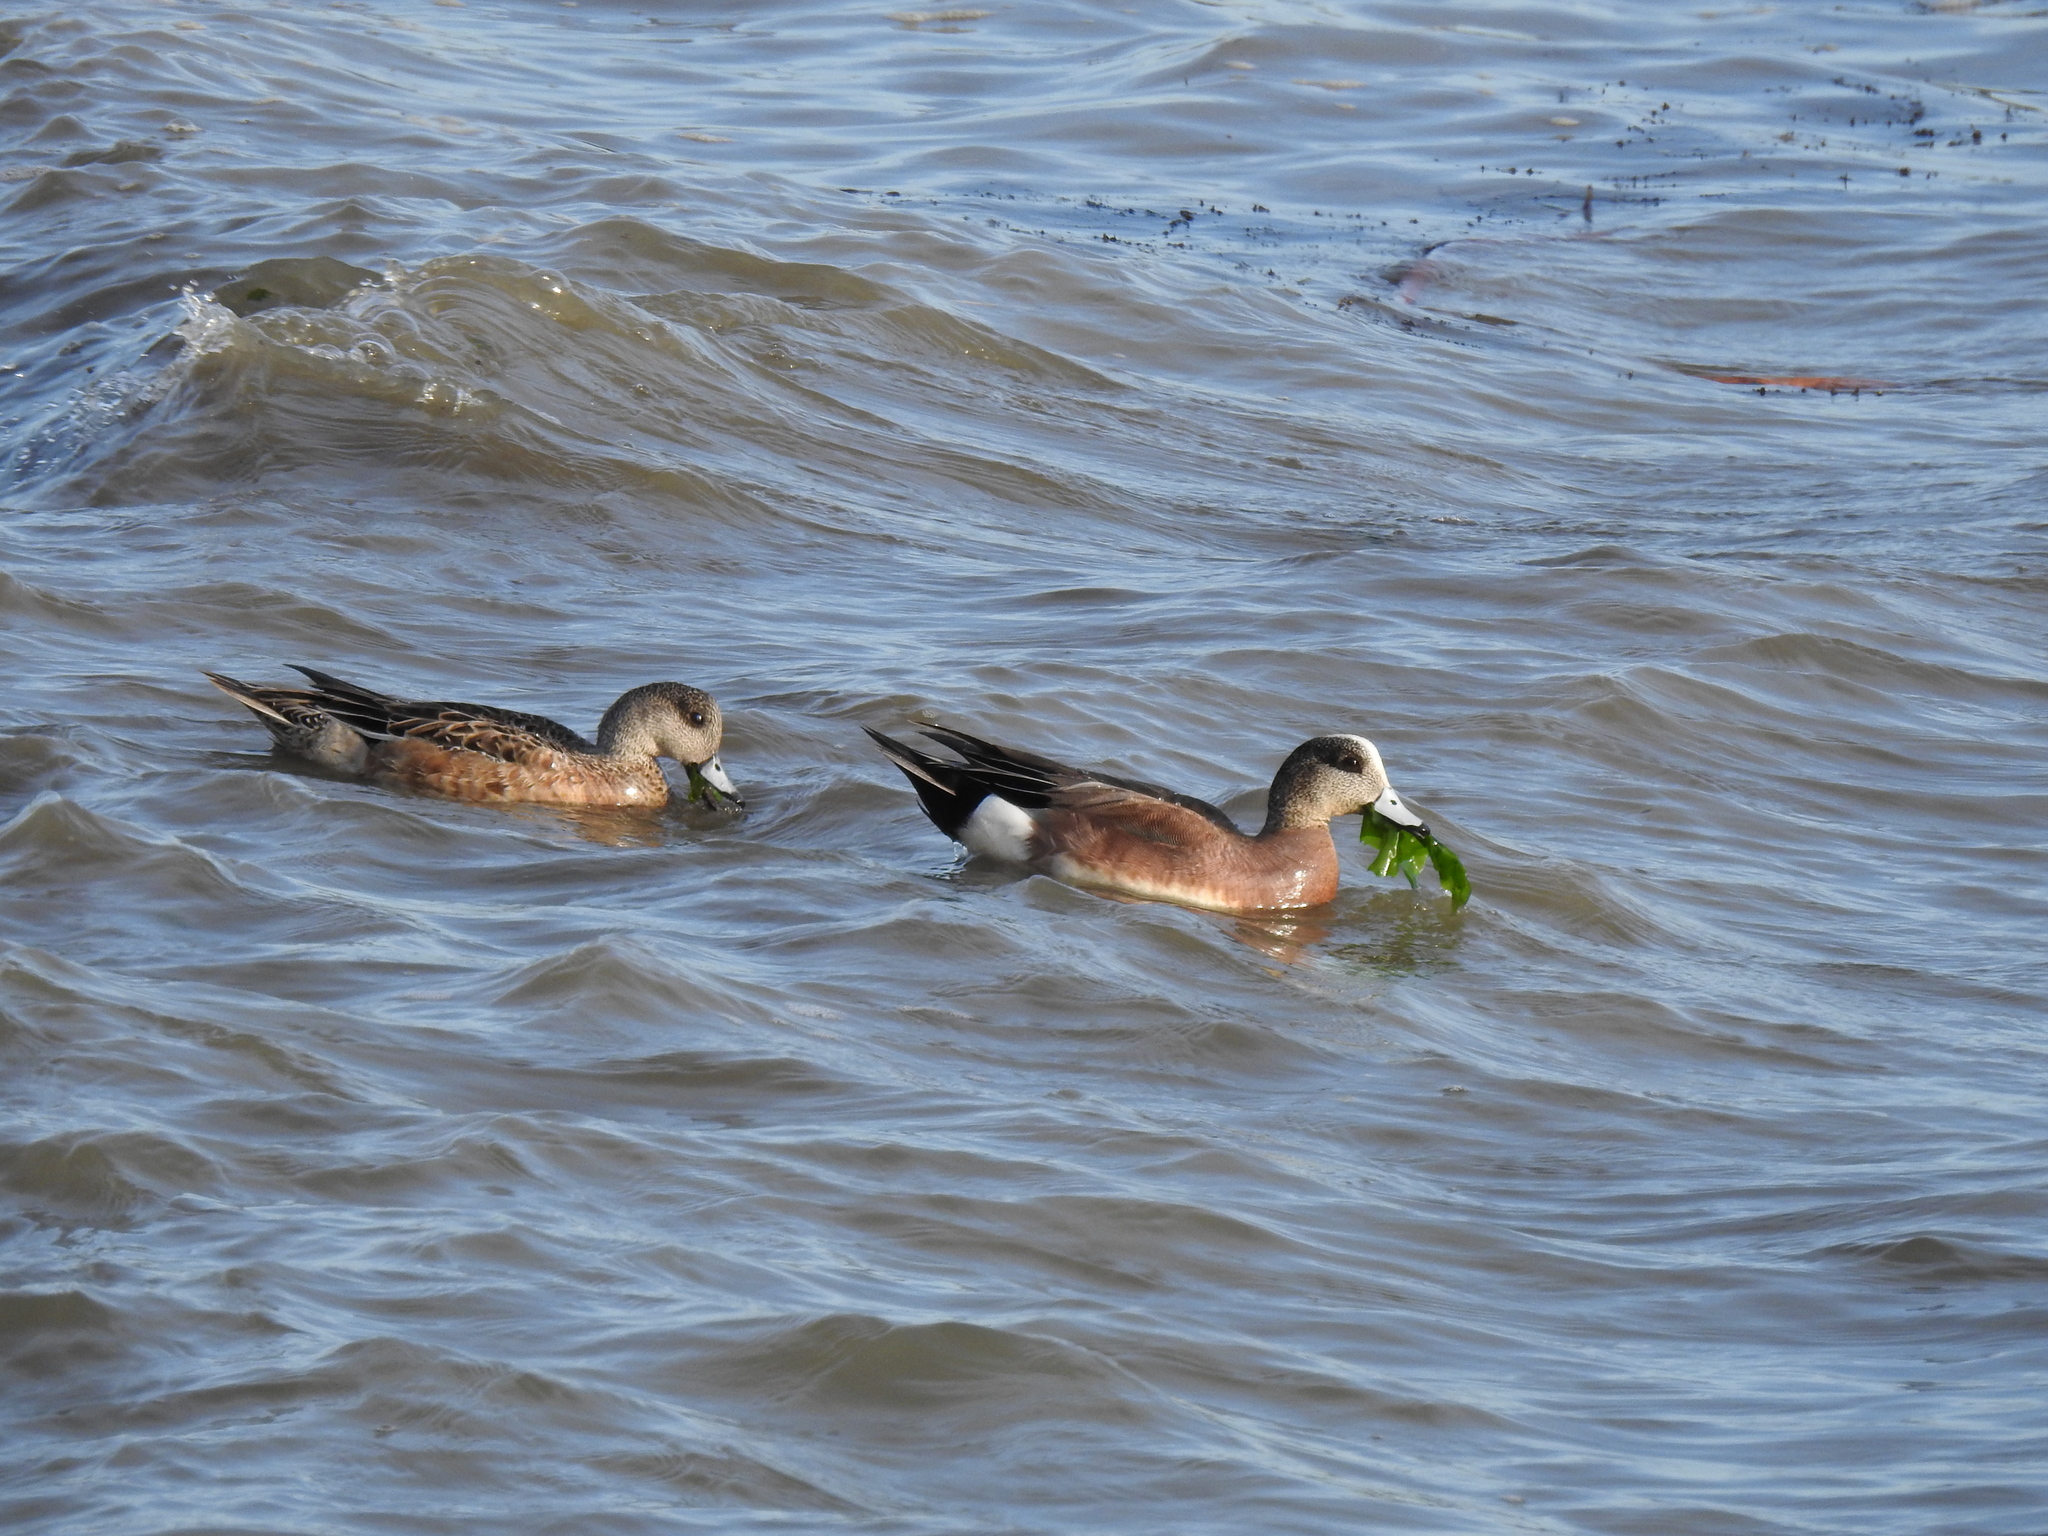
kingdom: Animalia
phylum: Chordata
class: Aves
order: Anseriformes
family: Anatidae
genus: Mareca
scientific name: Mareca americana
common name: American wigeon
